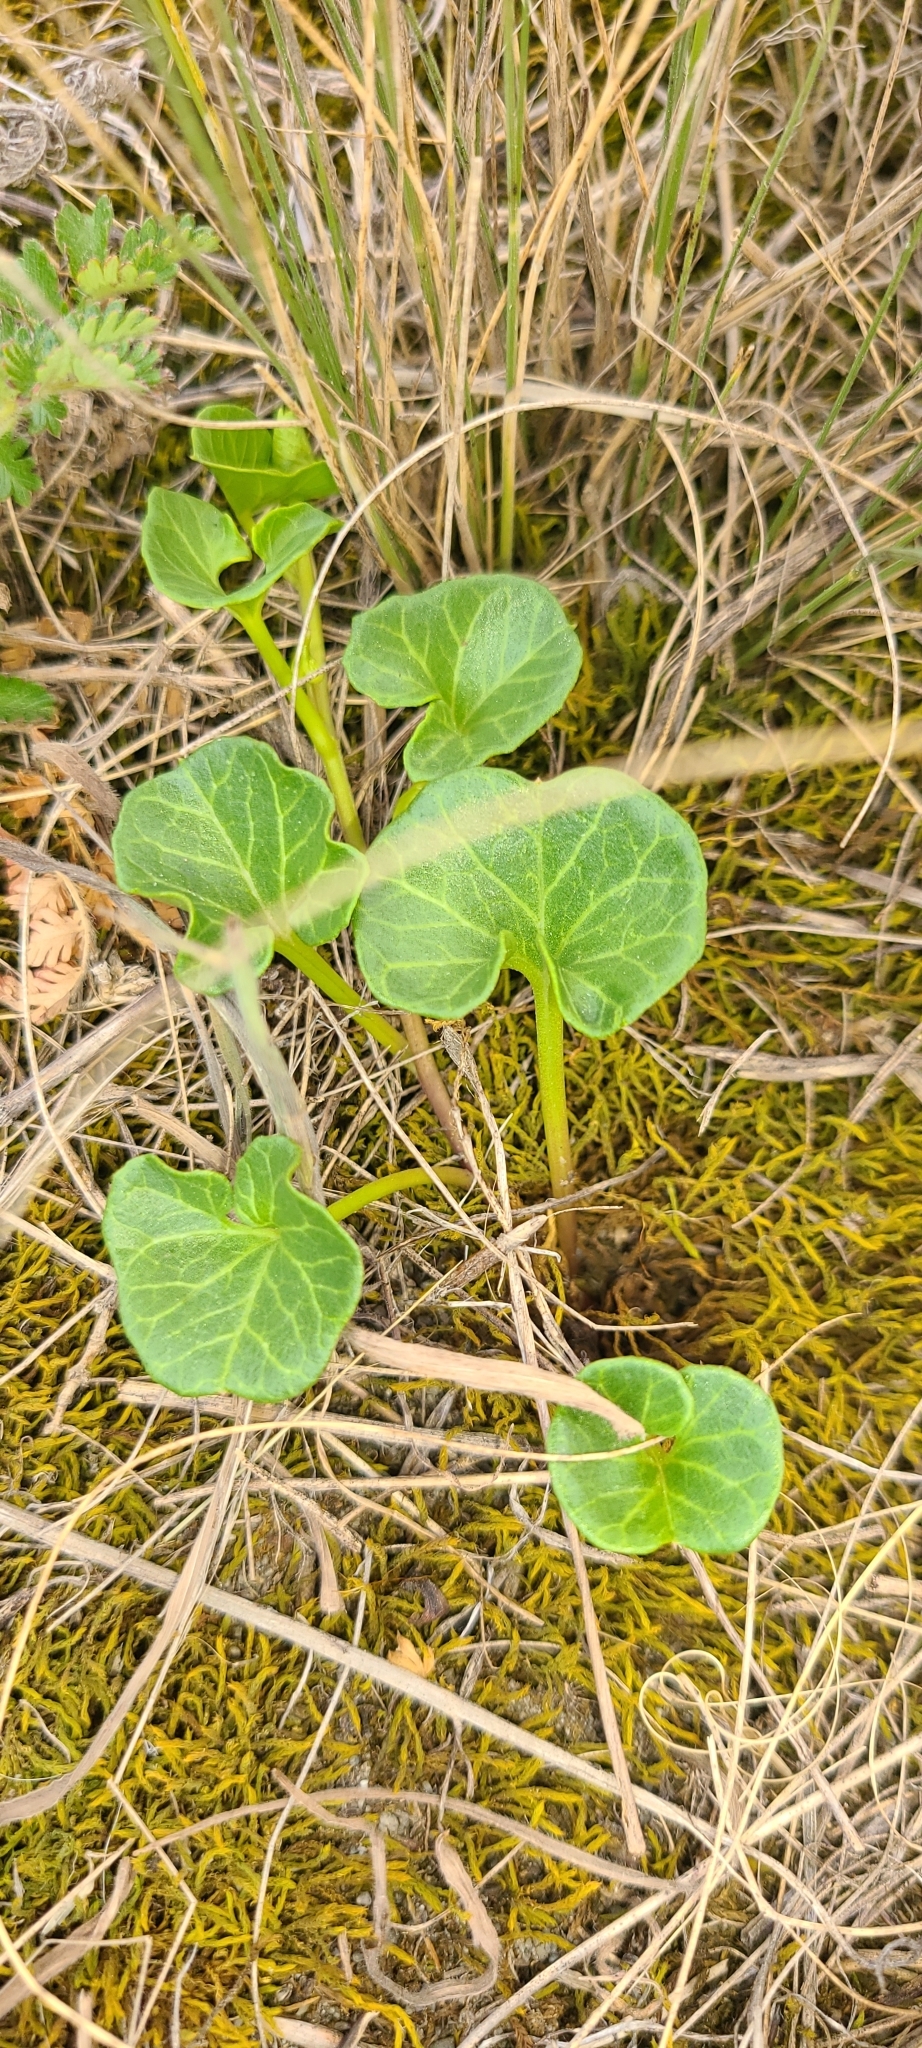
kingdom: Plantae
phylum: Tracheophyta
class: Magnoliopsida
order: Solanales
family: Convolvulaceae
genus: Calystegia
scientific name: Calystegia soldanella
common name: Sea bindweed
